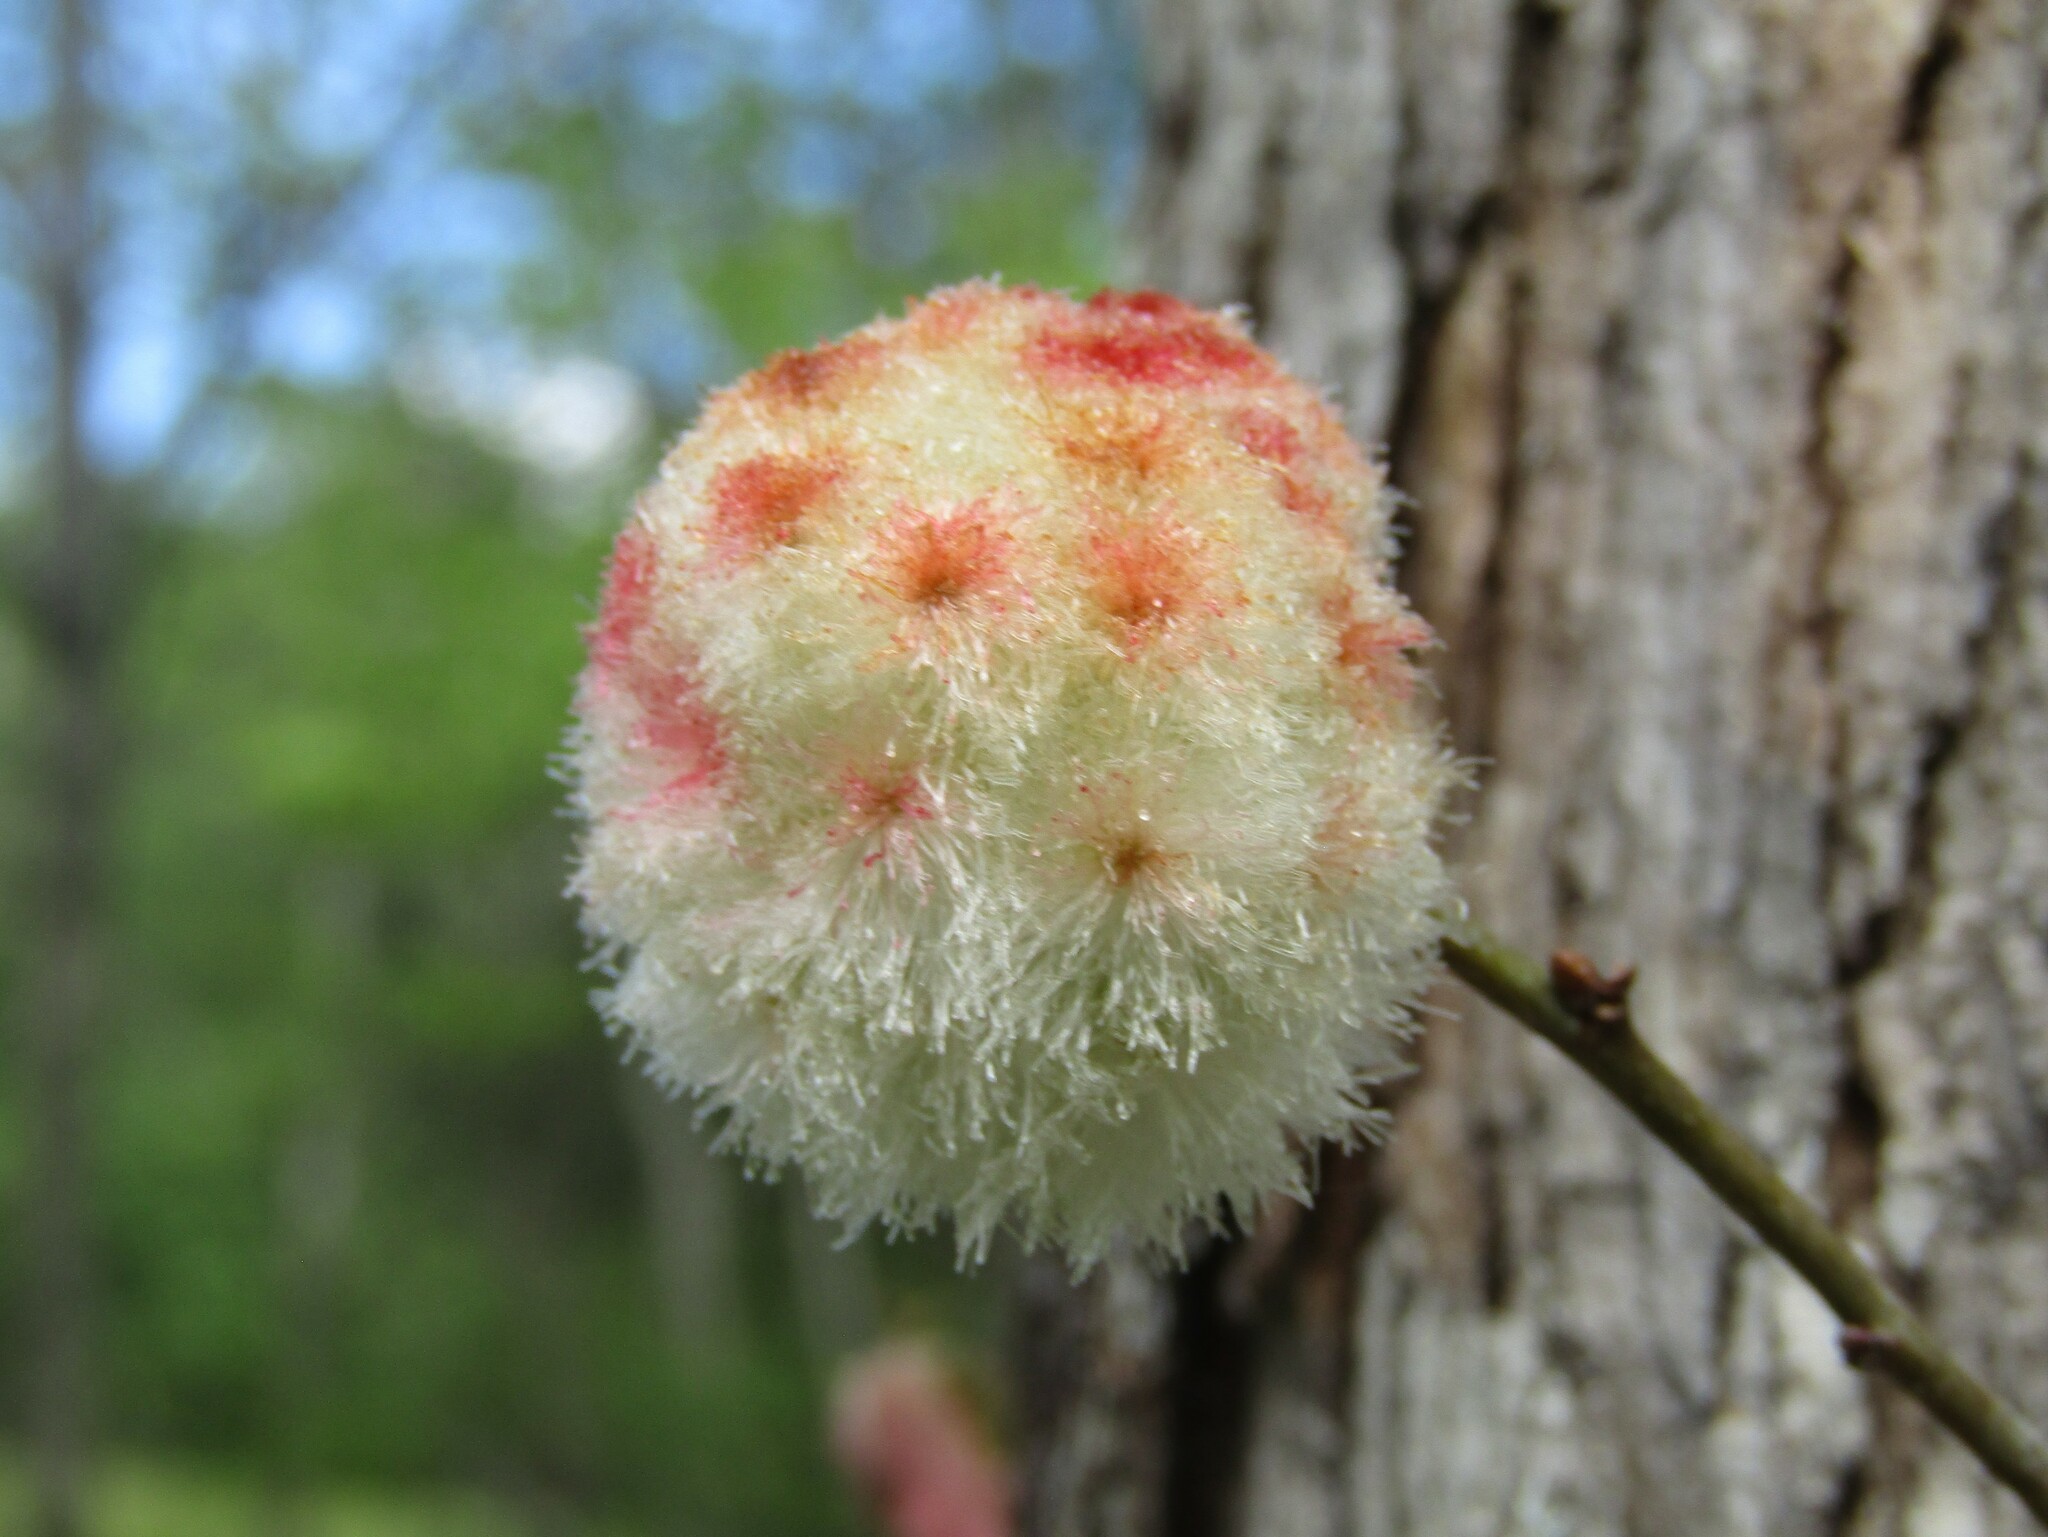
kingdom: Animalia
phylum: Arthropoda
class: Insecta
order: Hymenoptera
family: Cynipidae
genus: Callirhytis
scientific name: Callirhytis
